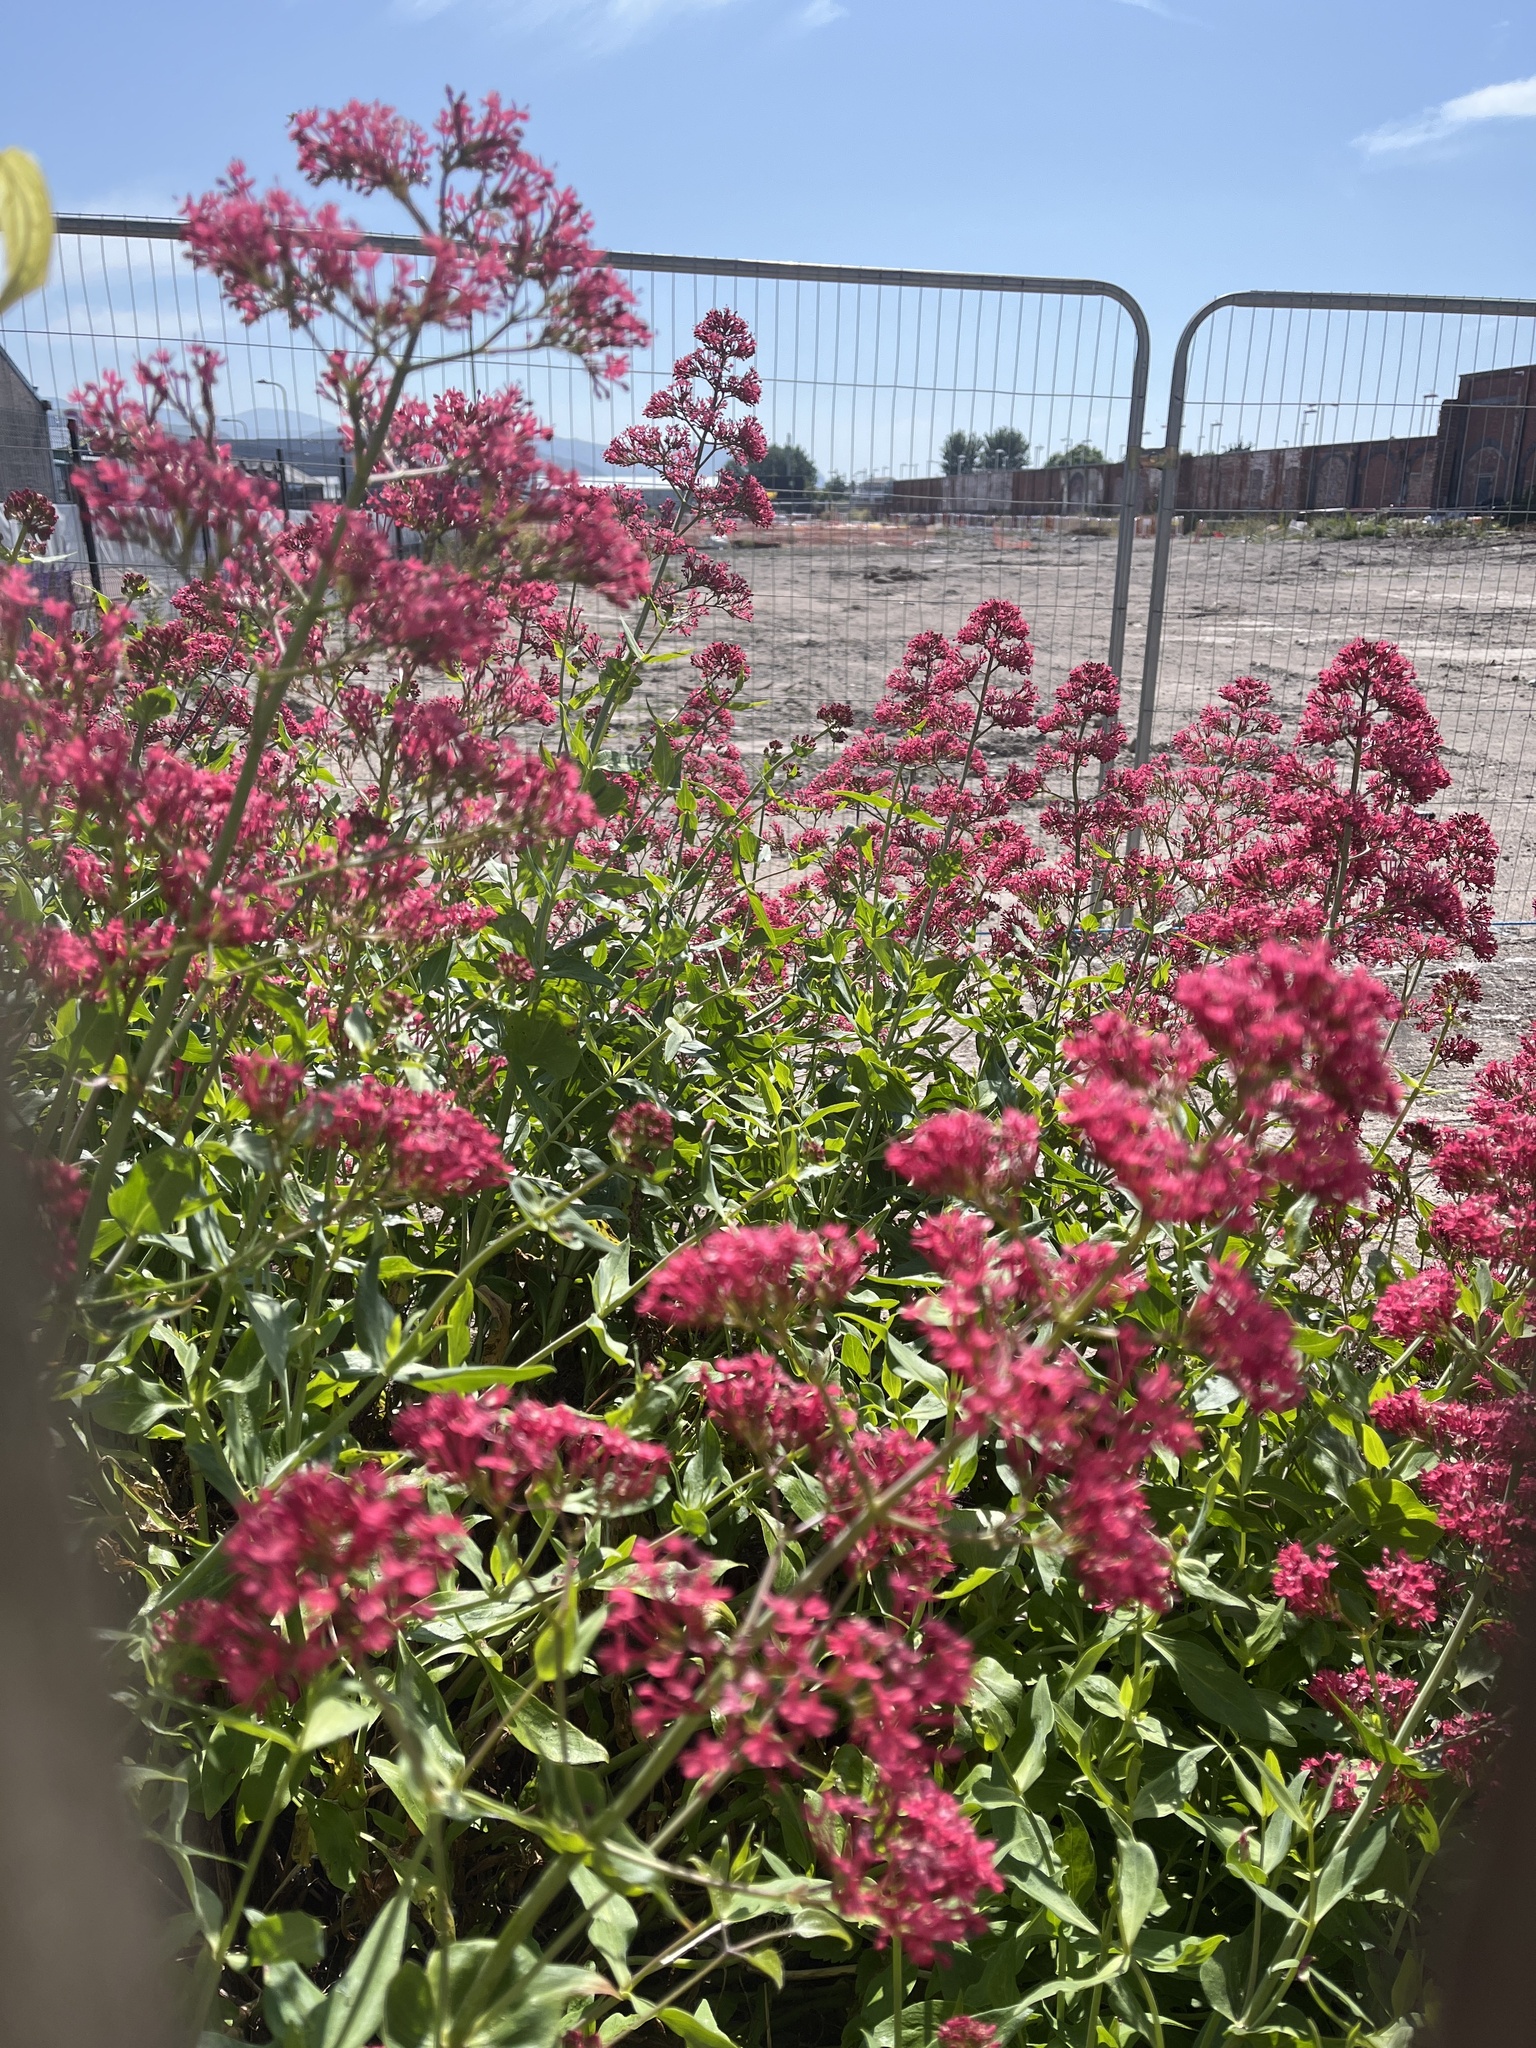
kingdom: Plantae
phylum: Tracheophyta
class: Magnoliopsida
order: Dipsacales
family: Caprifoliaceae
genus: Centranthus
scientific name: Centranthus ruber
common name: Red valerian
